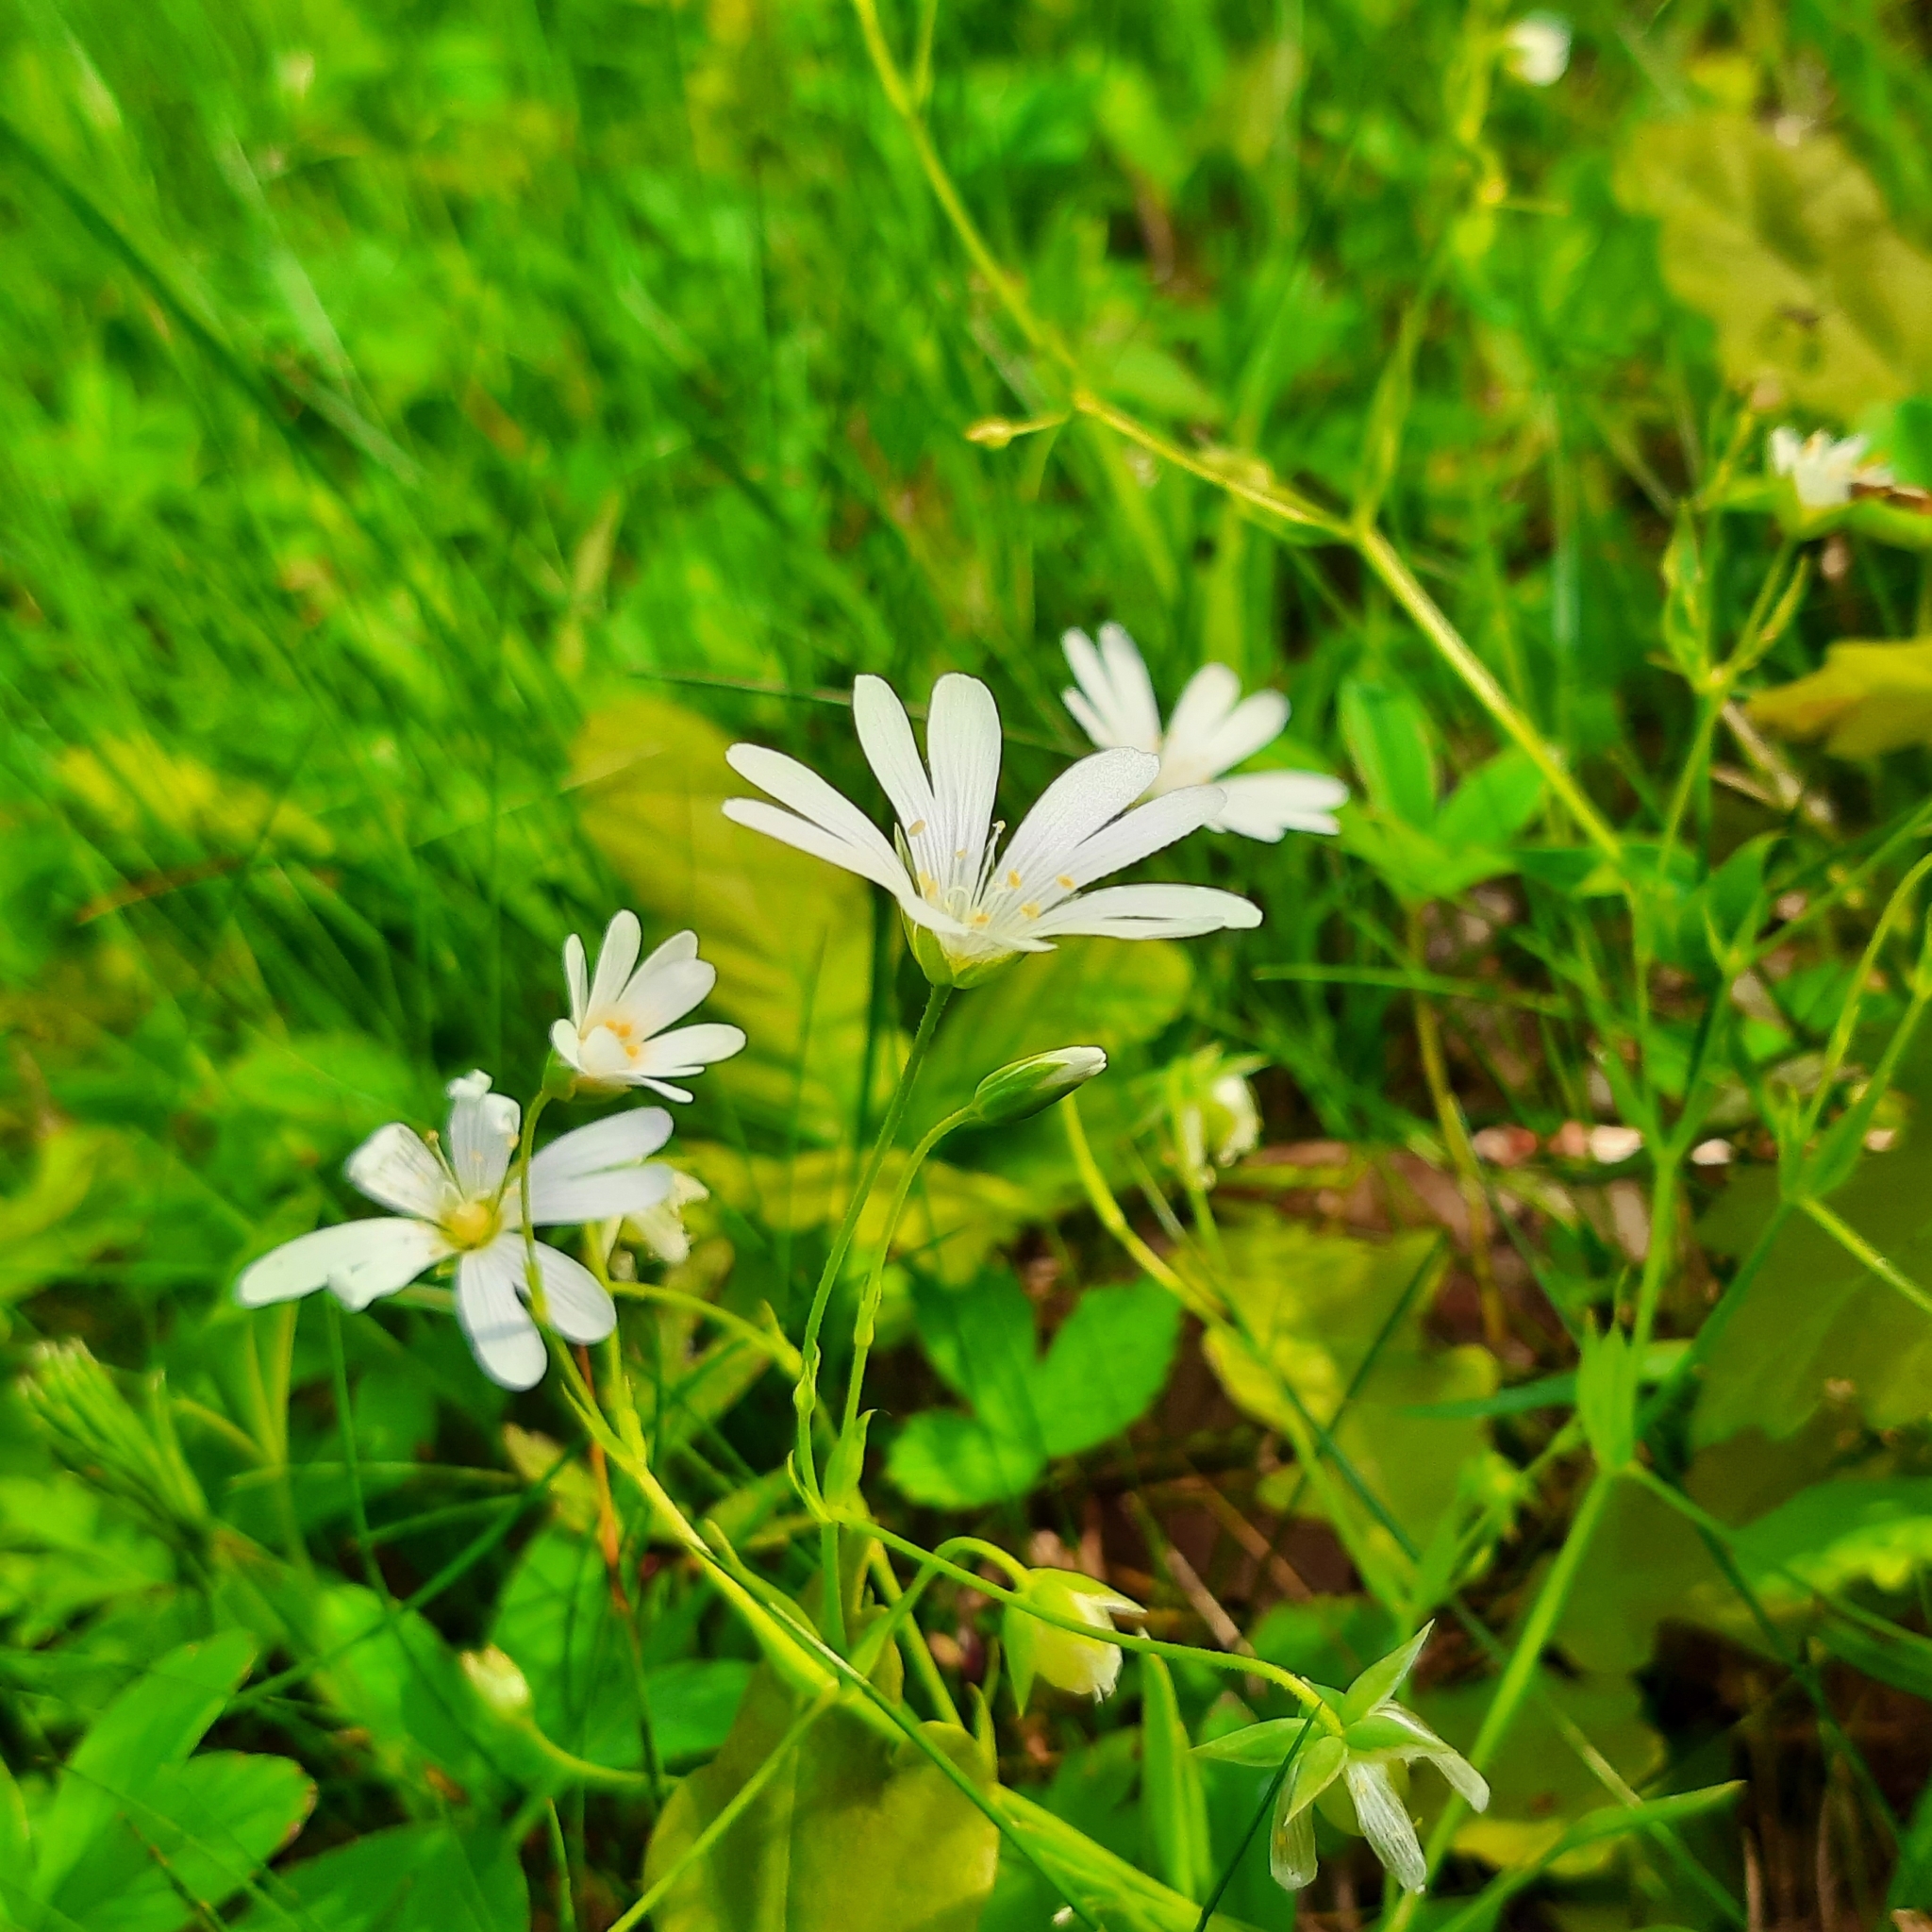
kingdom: Plantae
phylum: Tracheophyta
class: Magnoliopsida
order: Caryophyllales
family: Caryophyllaceae
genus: Rabelera
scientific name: Rabelera holostea
